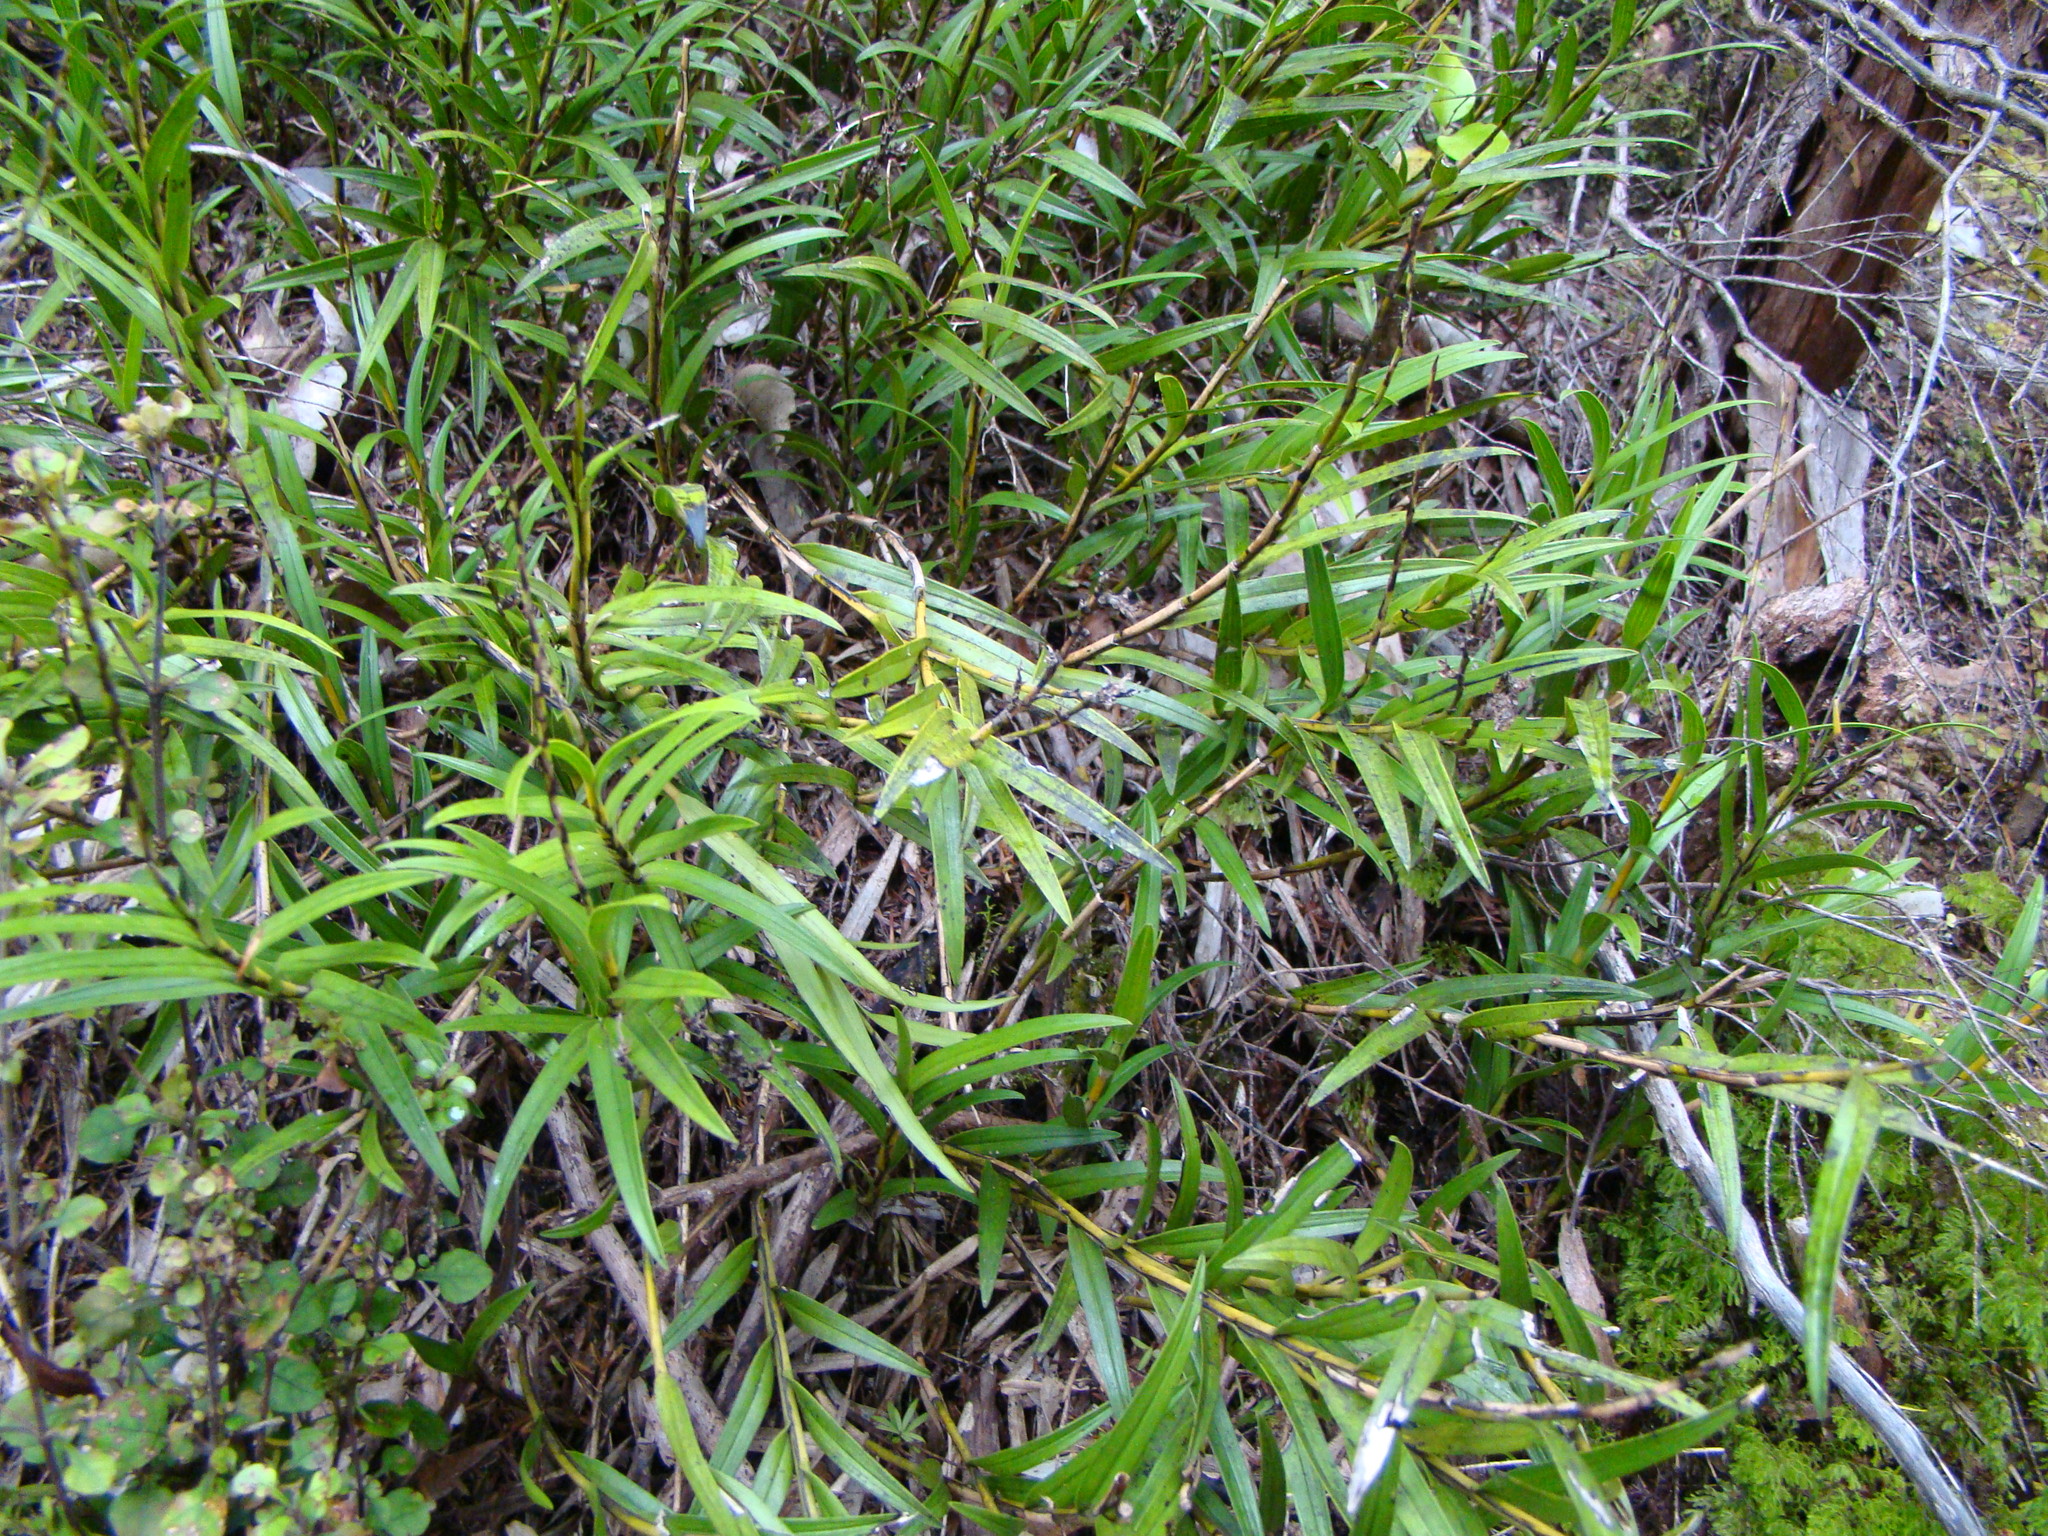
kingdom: Plantae
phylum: Tracheophyta
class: Liliopsida
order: Asparagales
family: Orchidaceae
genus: Earina
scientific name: Earina autumnalis
